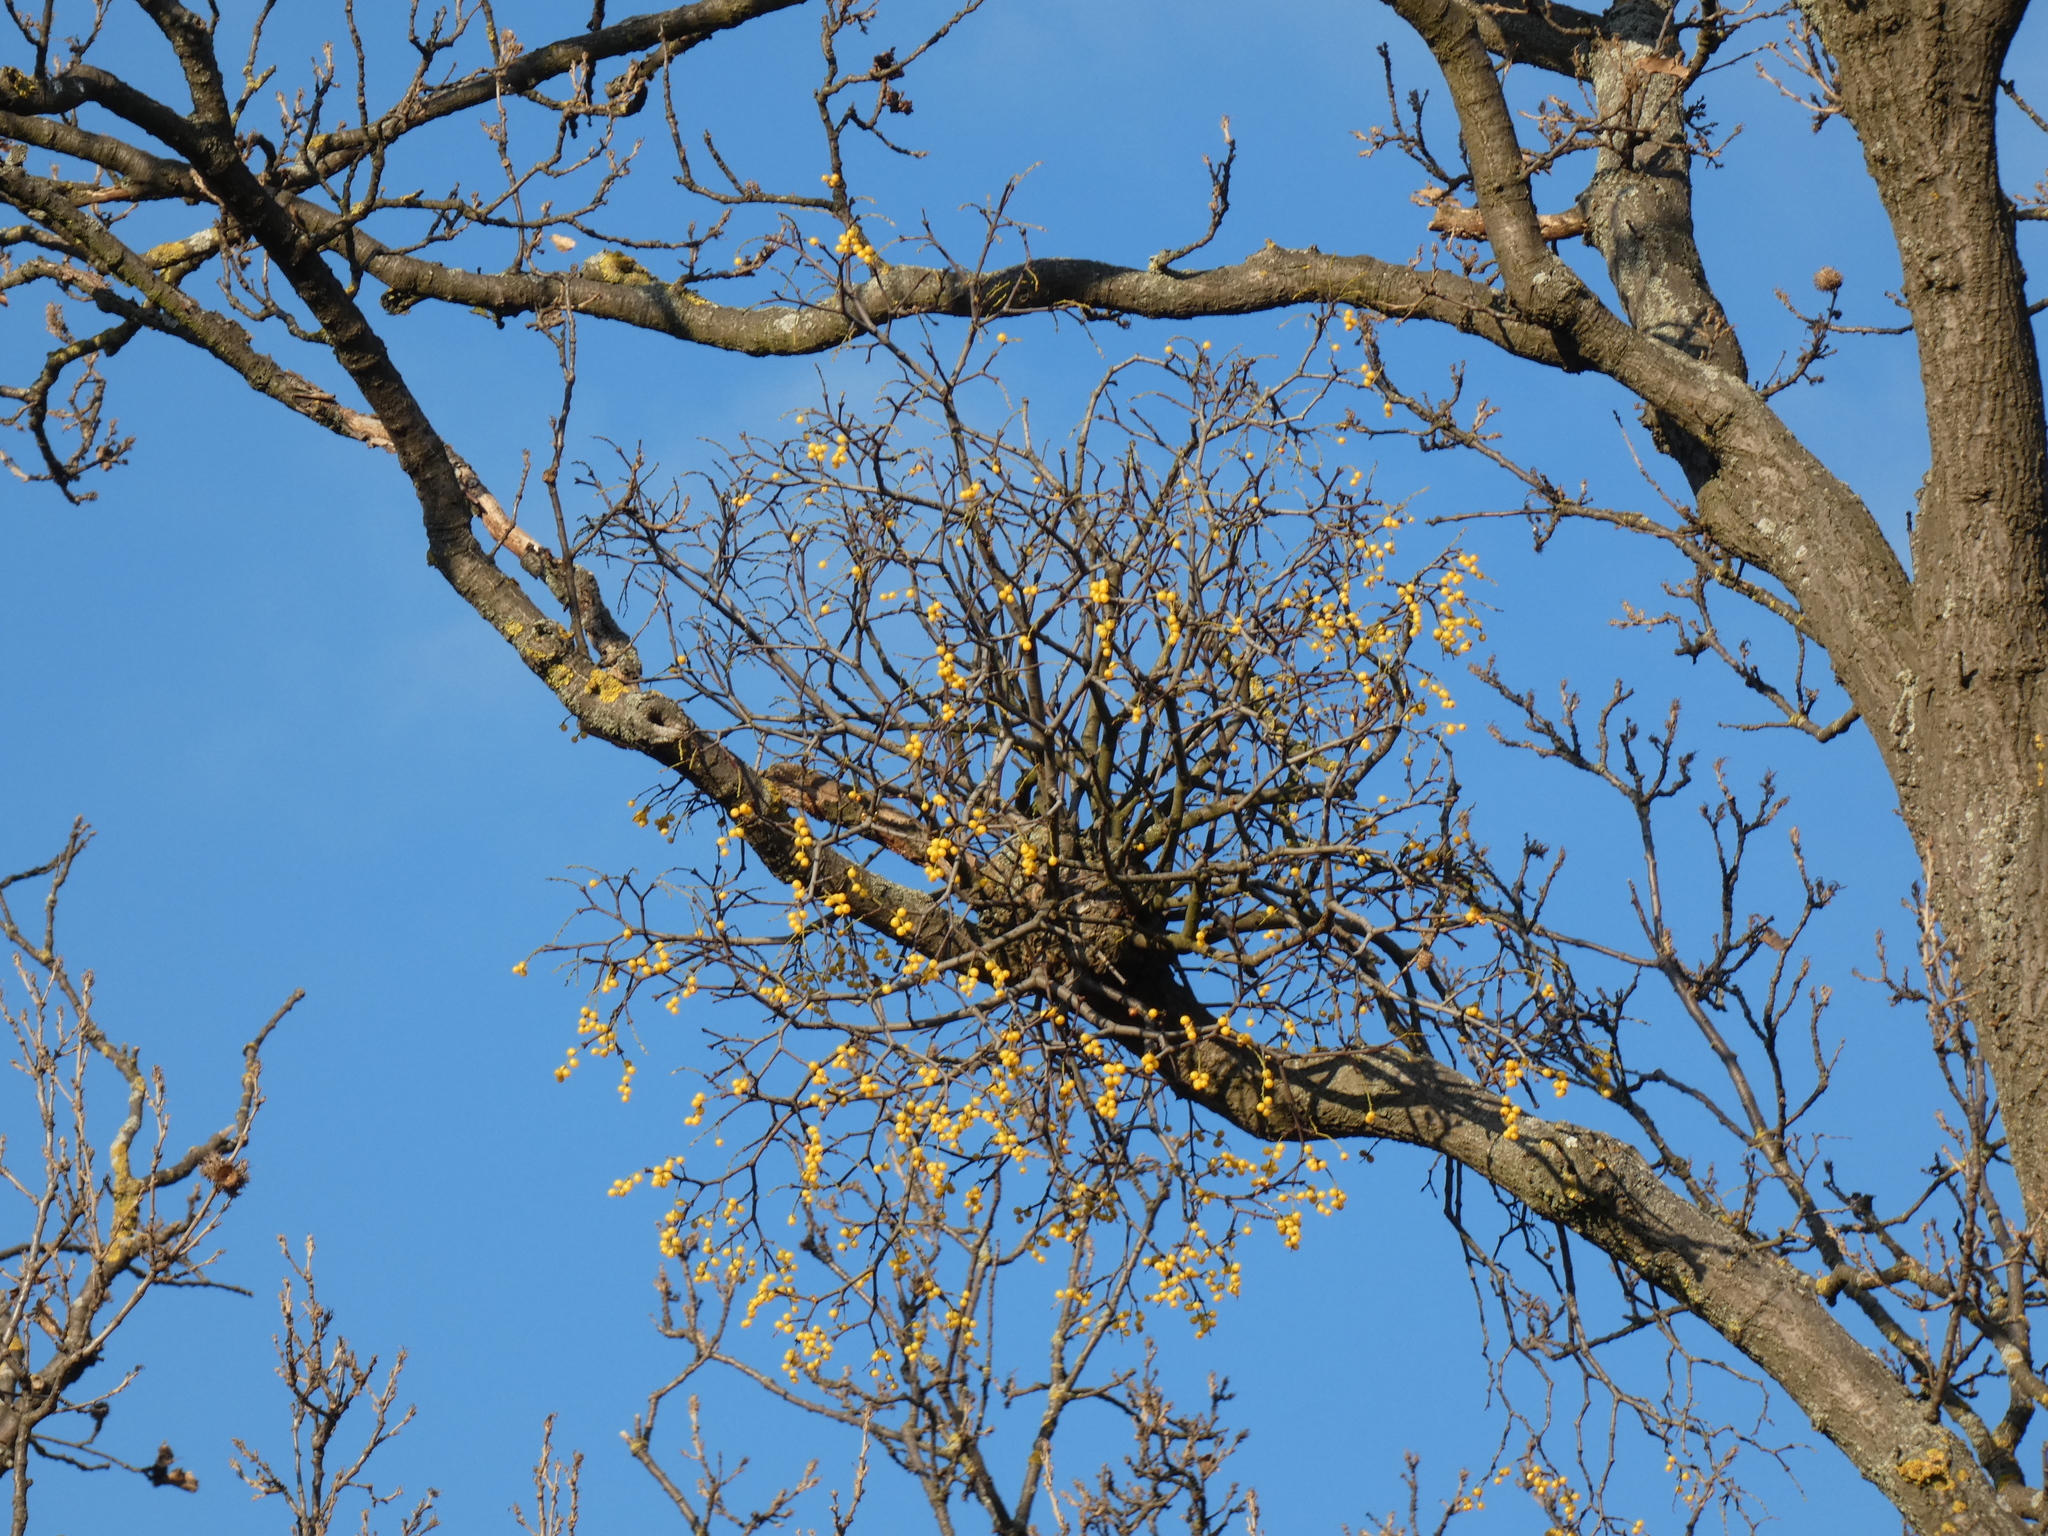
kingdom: Plantae
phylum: Tracheophyta
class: Magnoliopsida
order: Santalales
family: Loranthaceae
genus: Loranthus
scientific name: Loranthus europaeus
